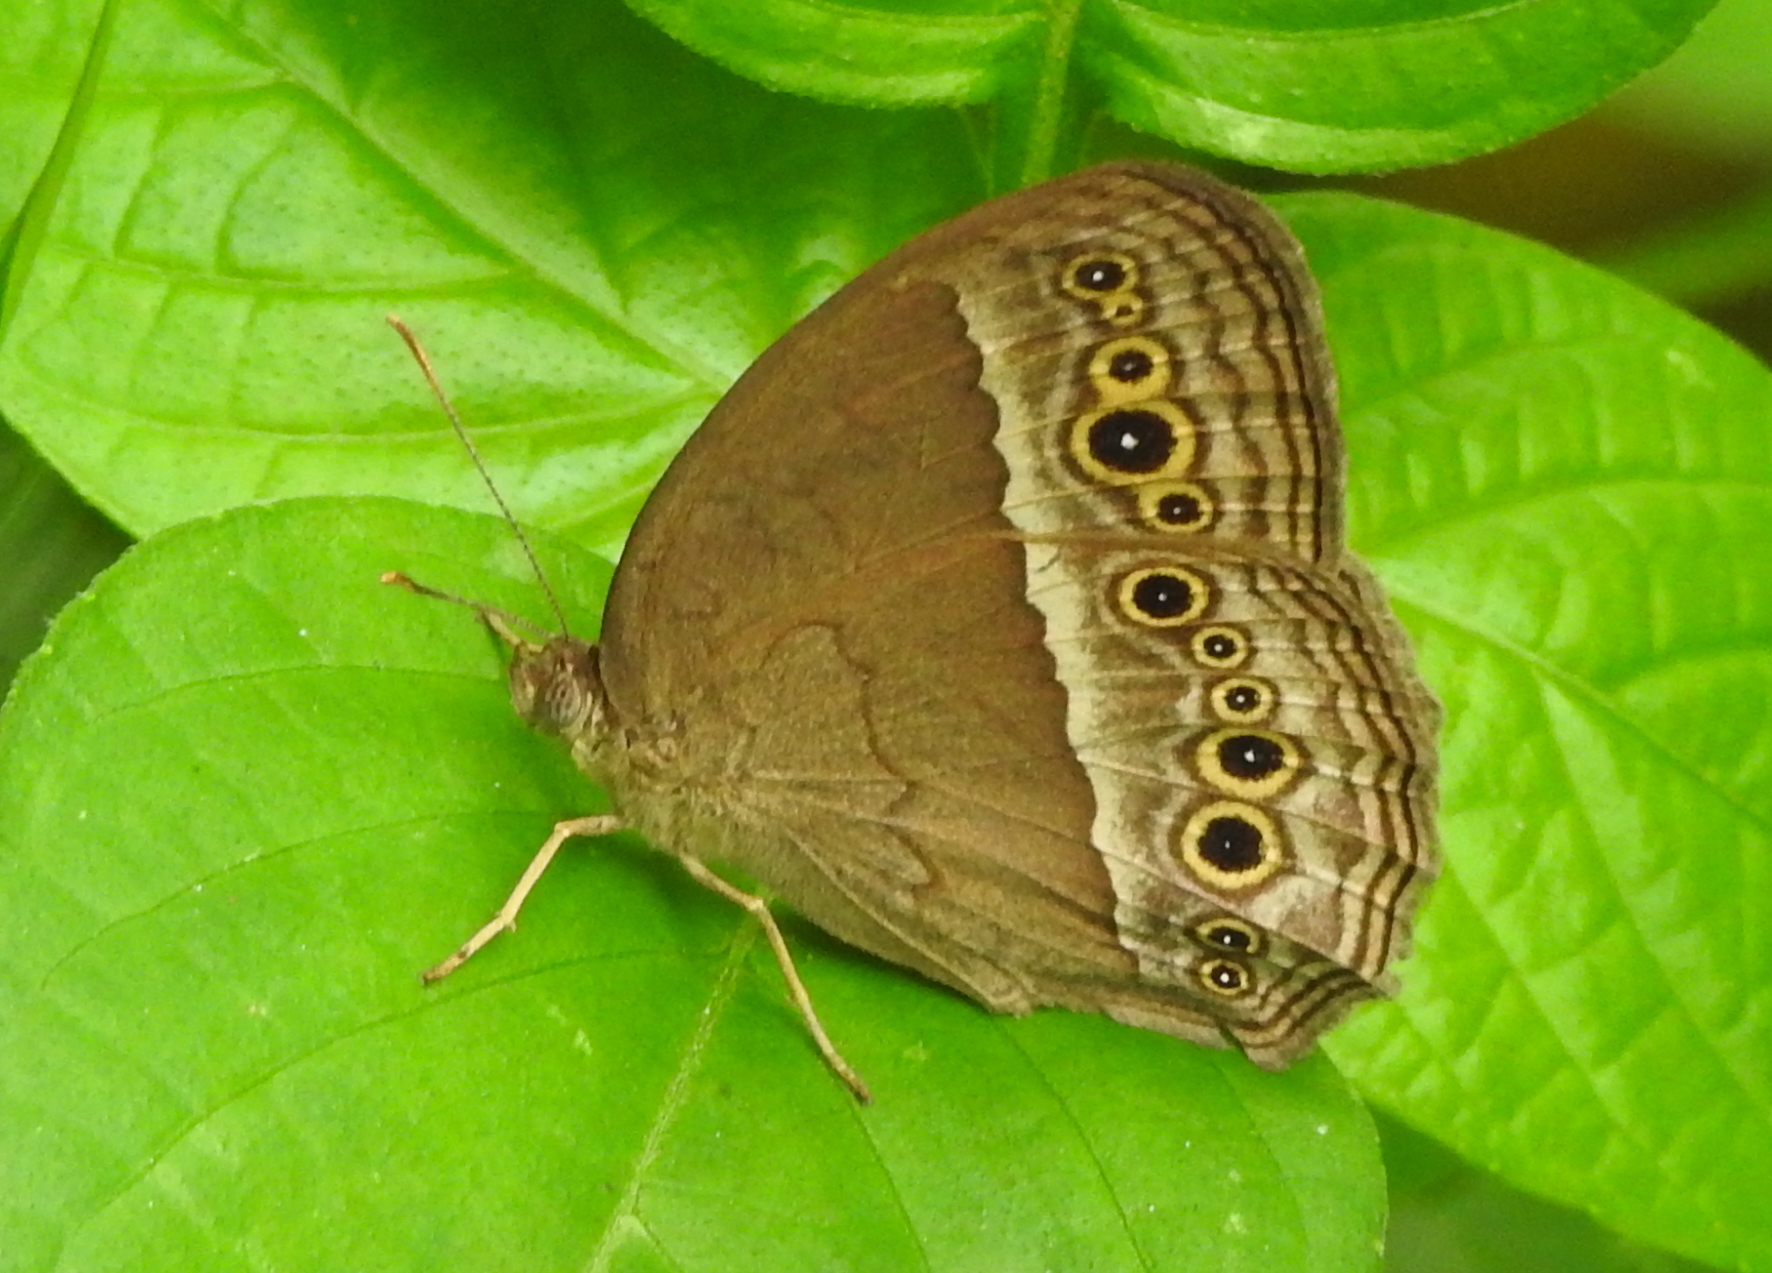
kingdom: Animalia
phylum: Arthropoda
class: Insecta
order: Lepidoptera
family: Nymphalidae
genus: Mycalesis
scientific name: Mycalesis perseoides
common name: Burmese bushbrown
